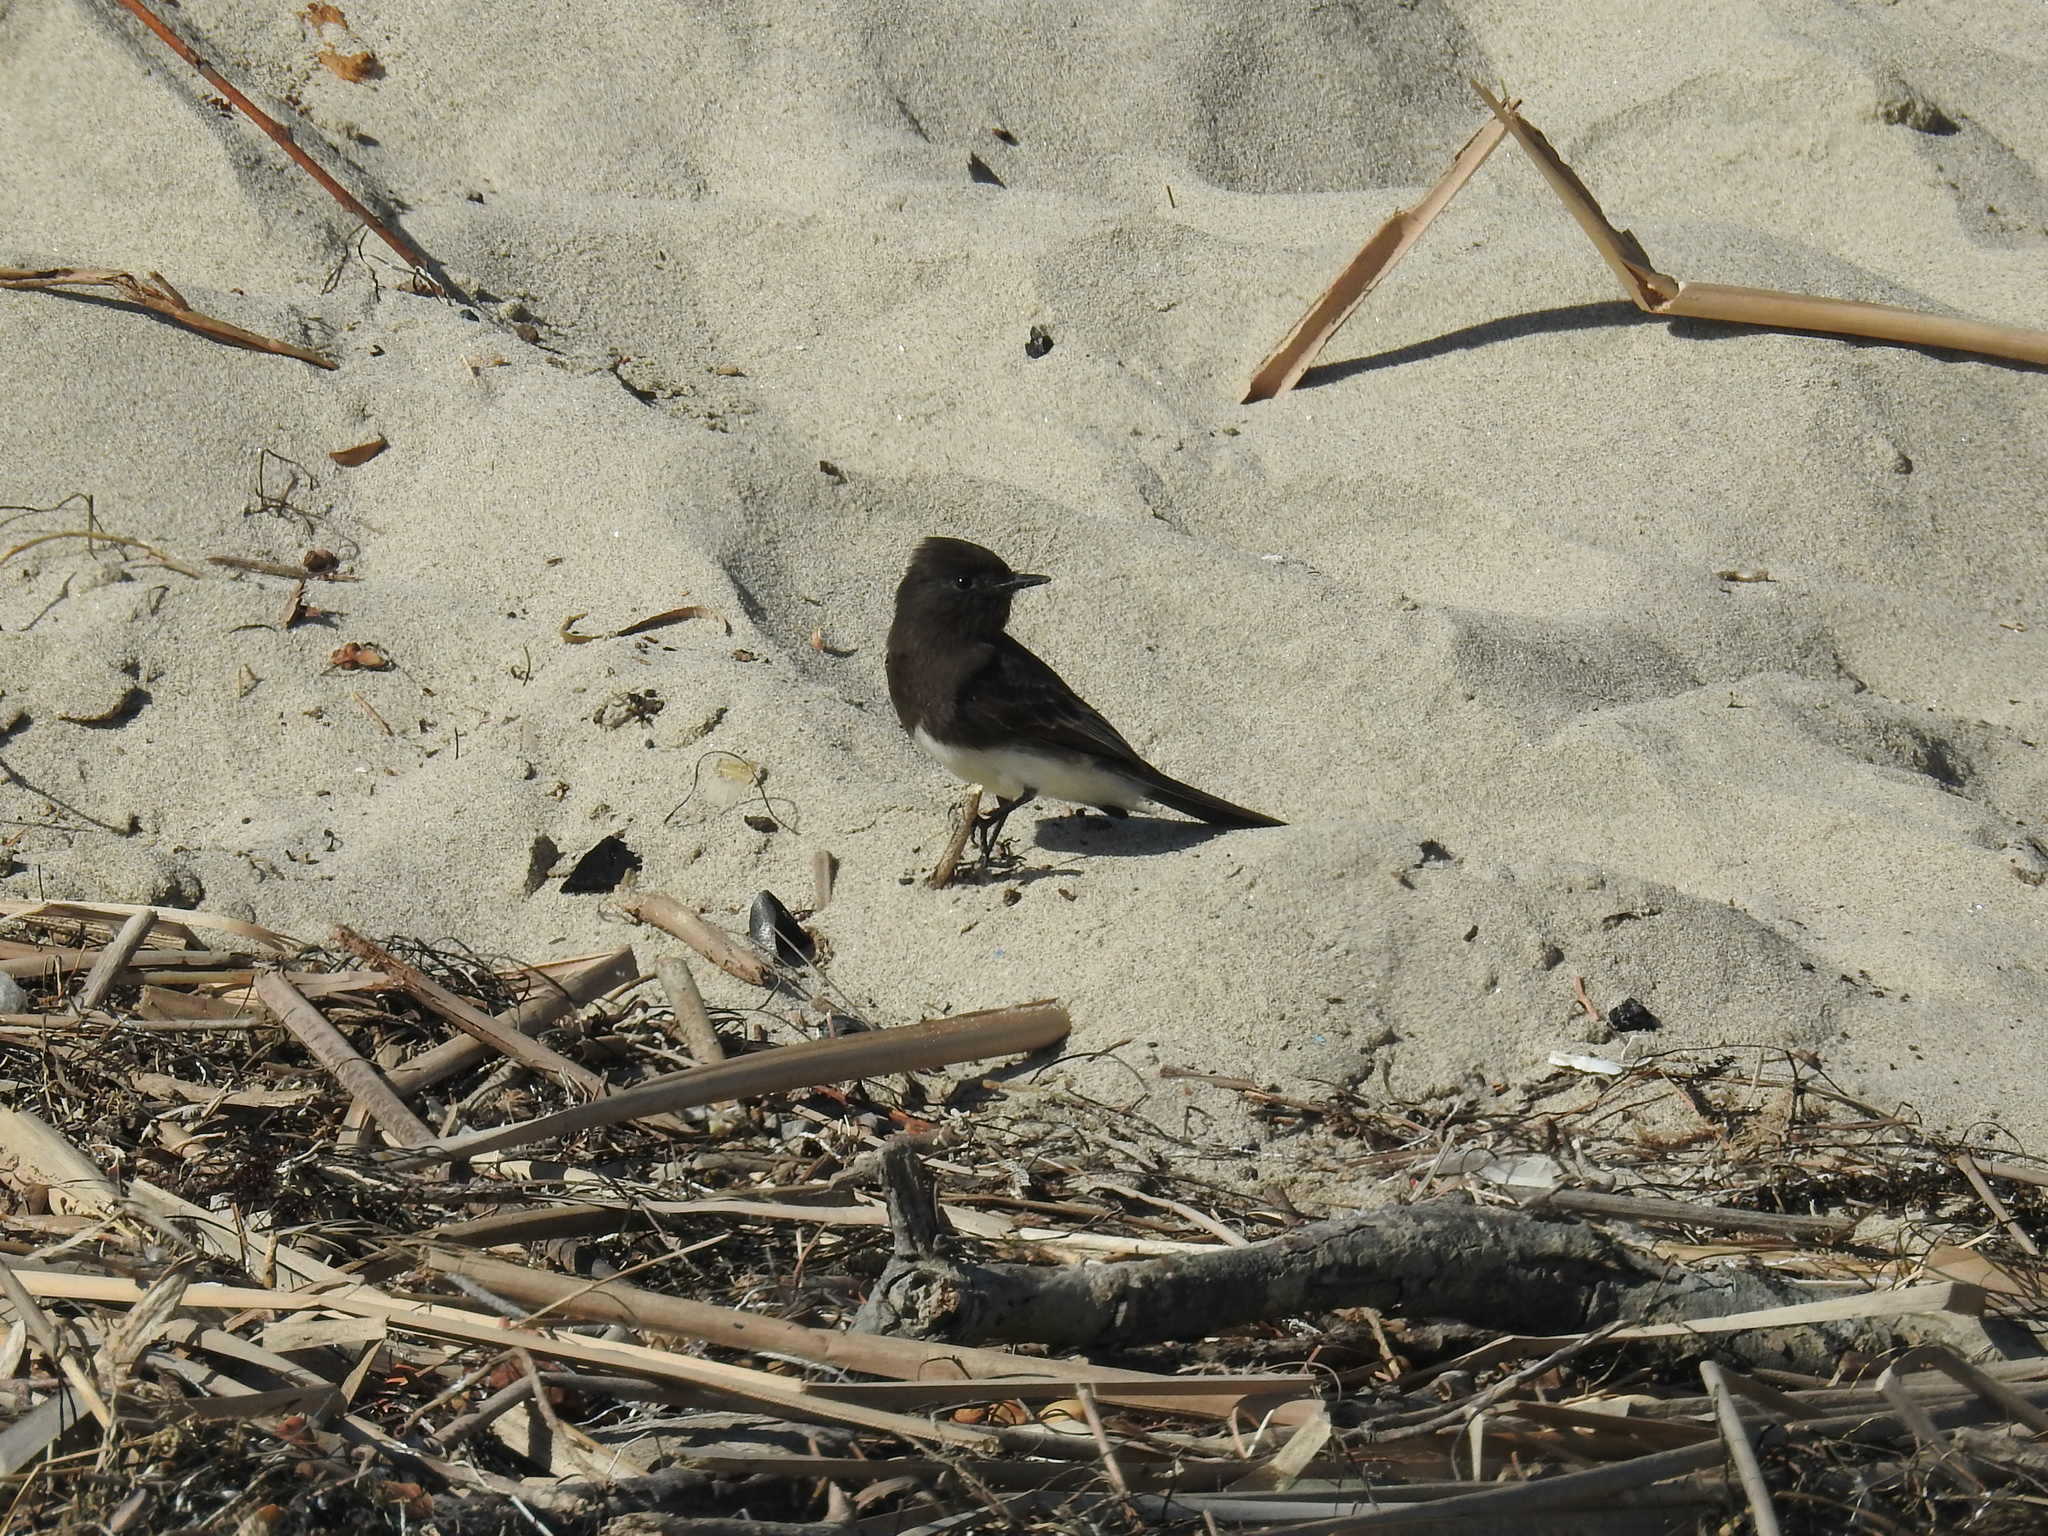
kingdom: Animalia
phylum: Chordata
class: Aves
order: Passeriformes
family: Tyrannidae
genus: Sayornis
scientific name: Sayornis nigricans
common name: Black phoebe
